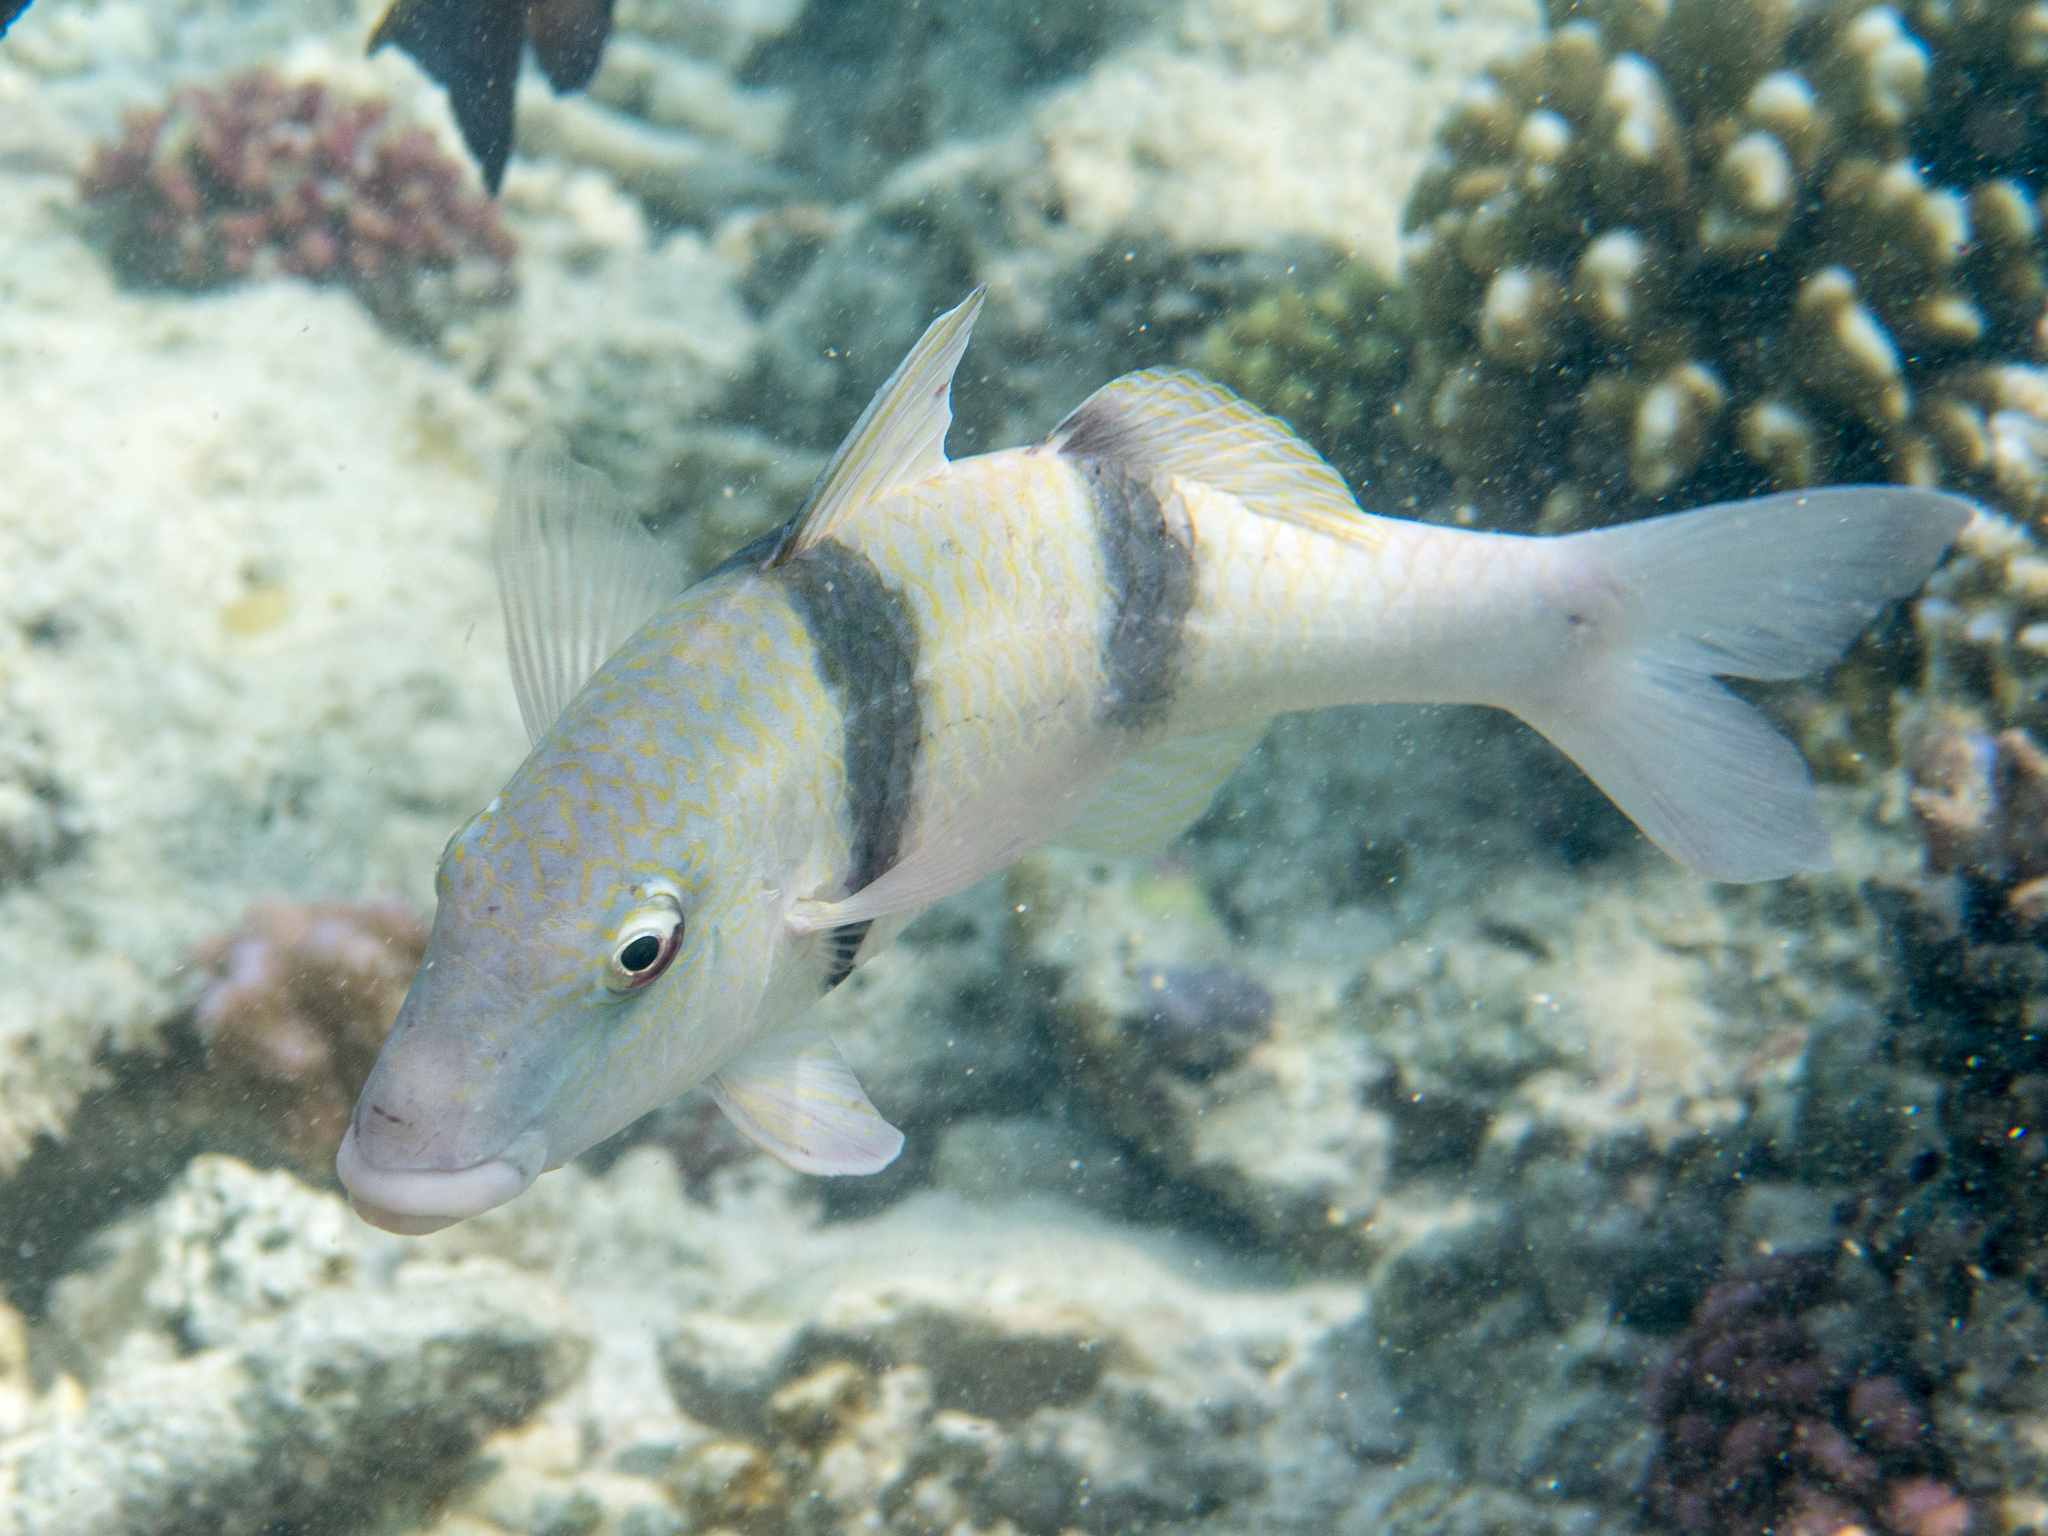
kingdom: Animalia
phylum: Chordata
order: Perciformes
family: Mullidae
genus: Parupeneus
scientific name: Parupeneus trifasciatus
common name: Doublebar goatfish
